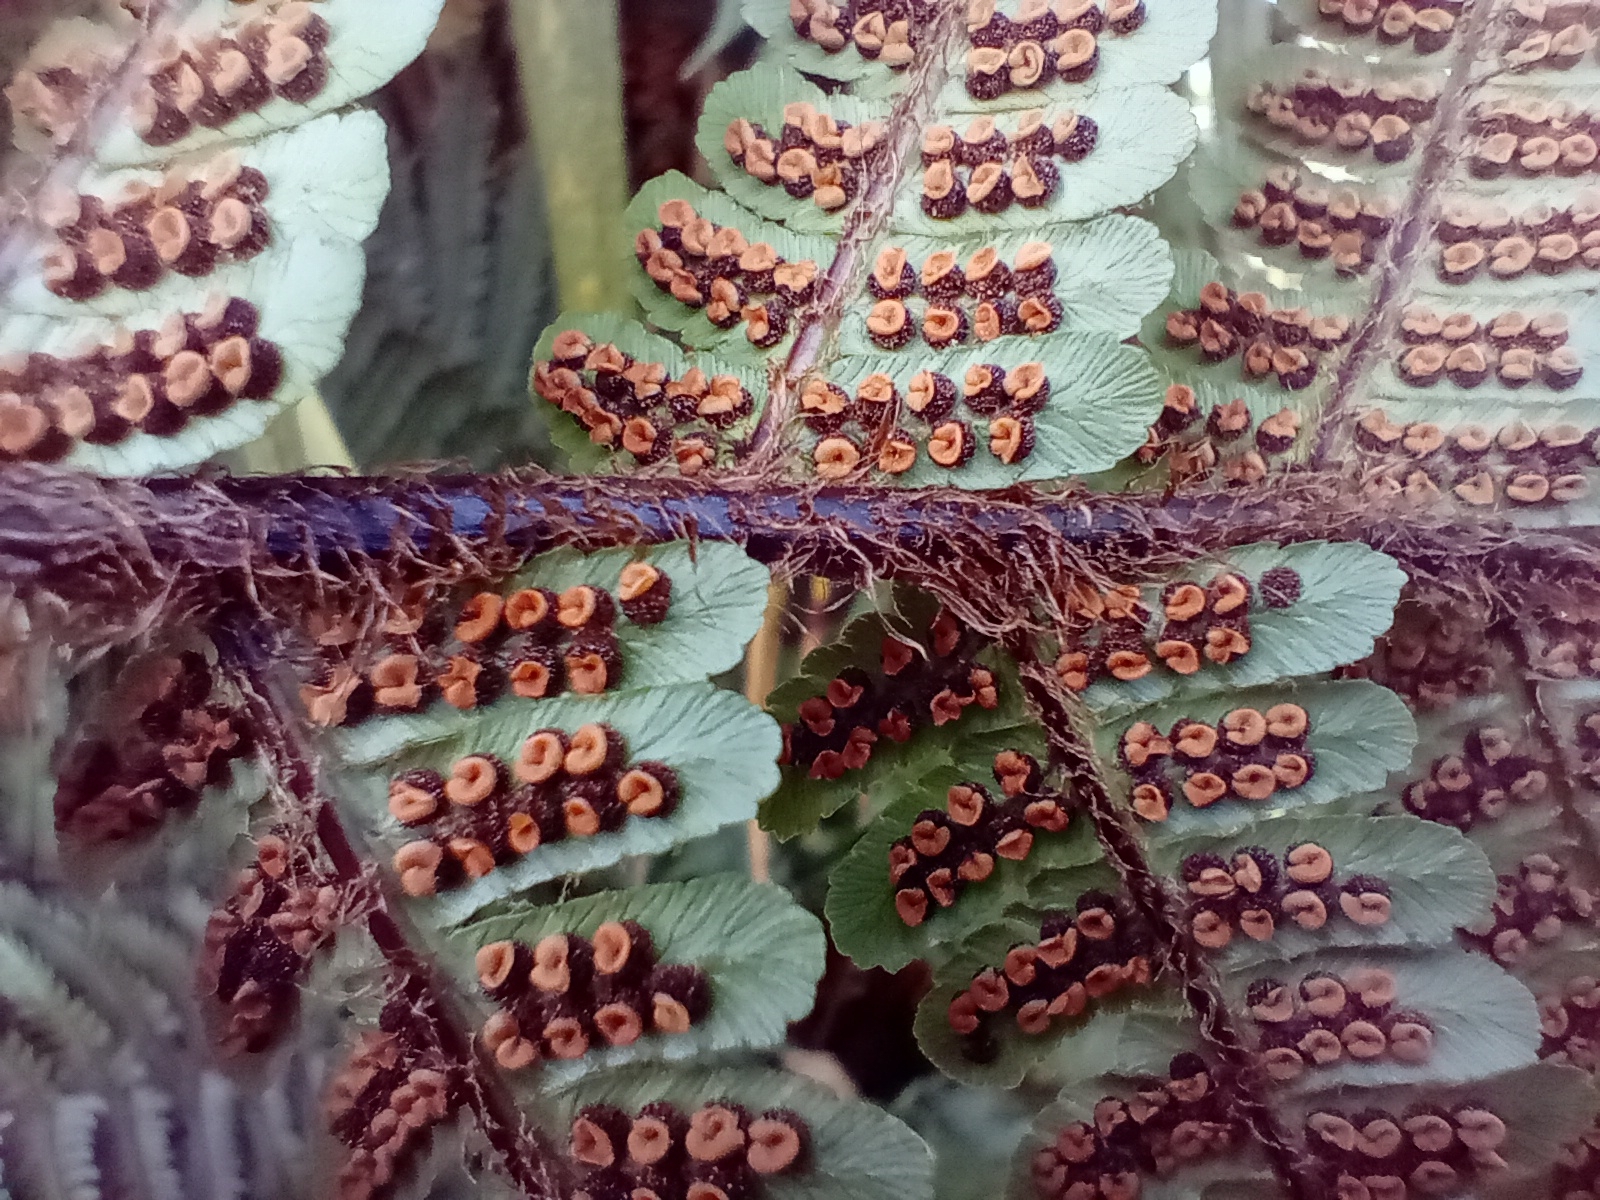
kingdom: Plantae
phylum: Tracheophyta
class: Polypodiopsida
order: Polypodiales
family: Dryopteridaceae
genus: Dryopteris
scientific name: Dryopteris affinis
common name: Scaly male fern
